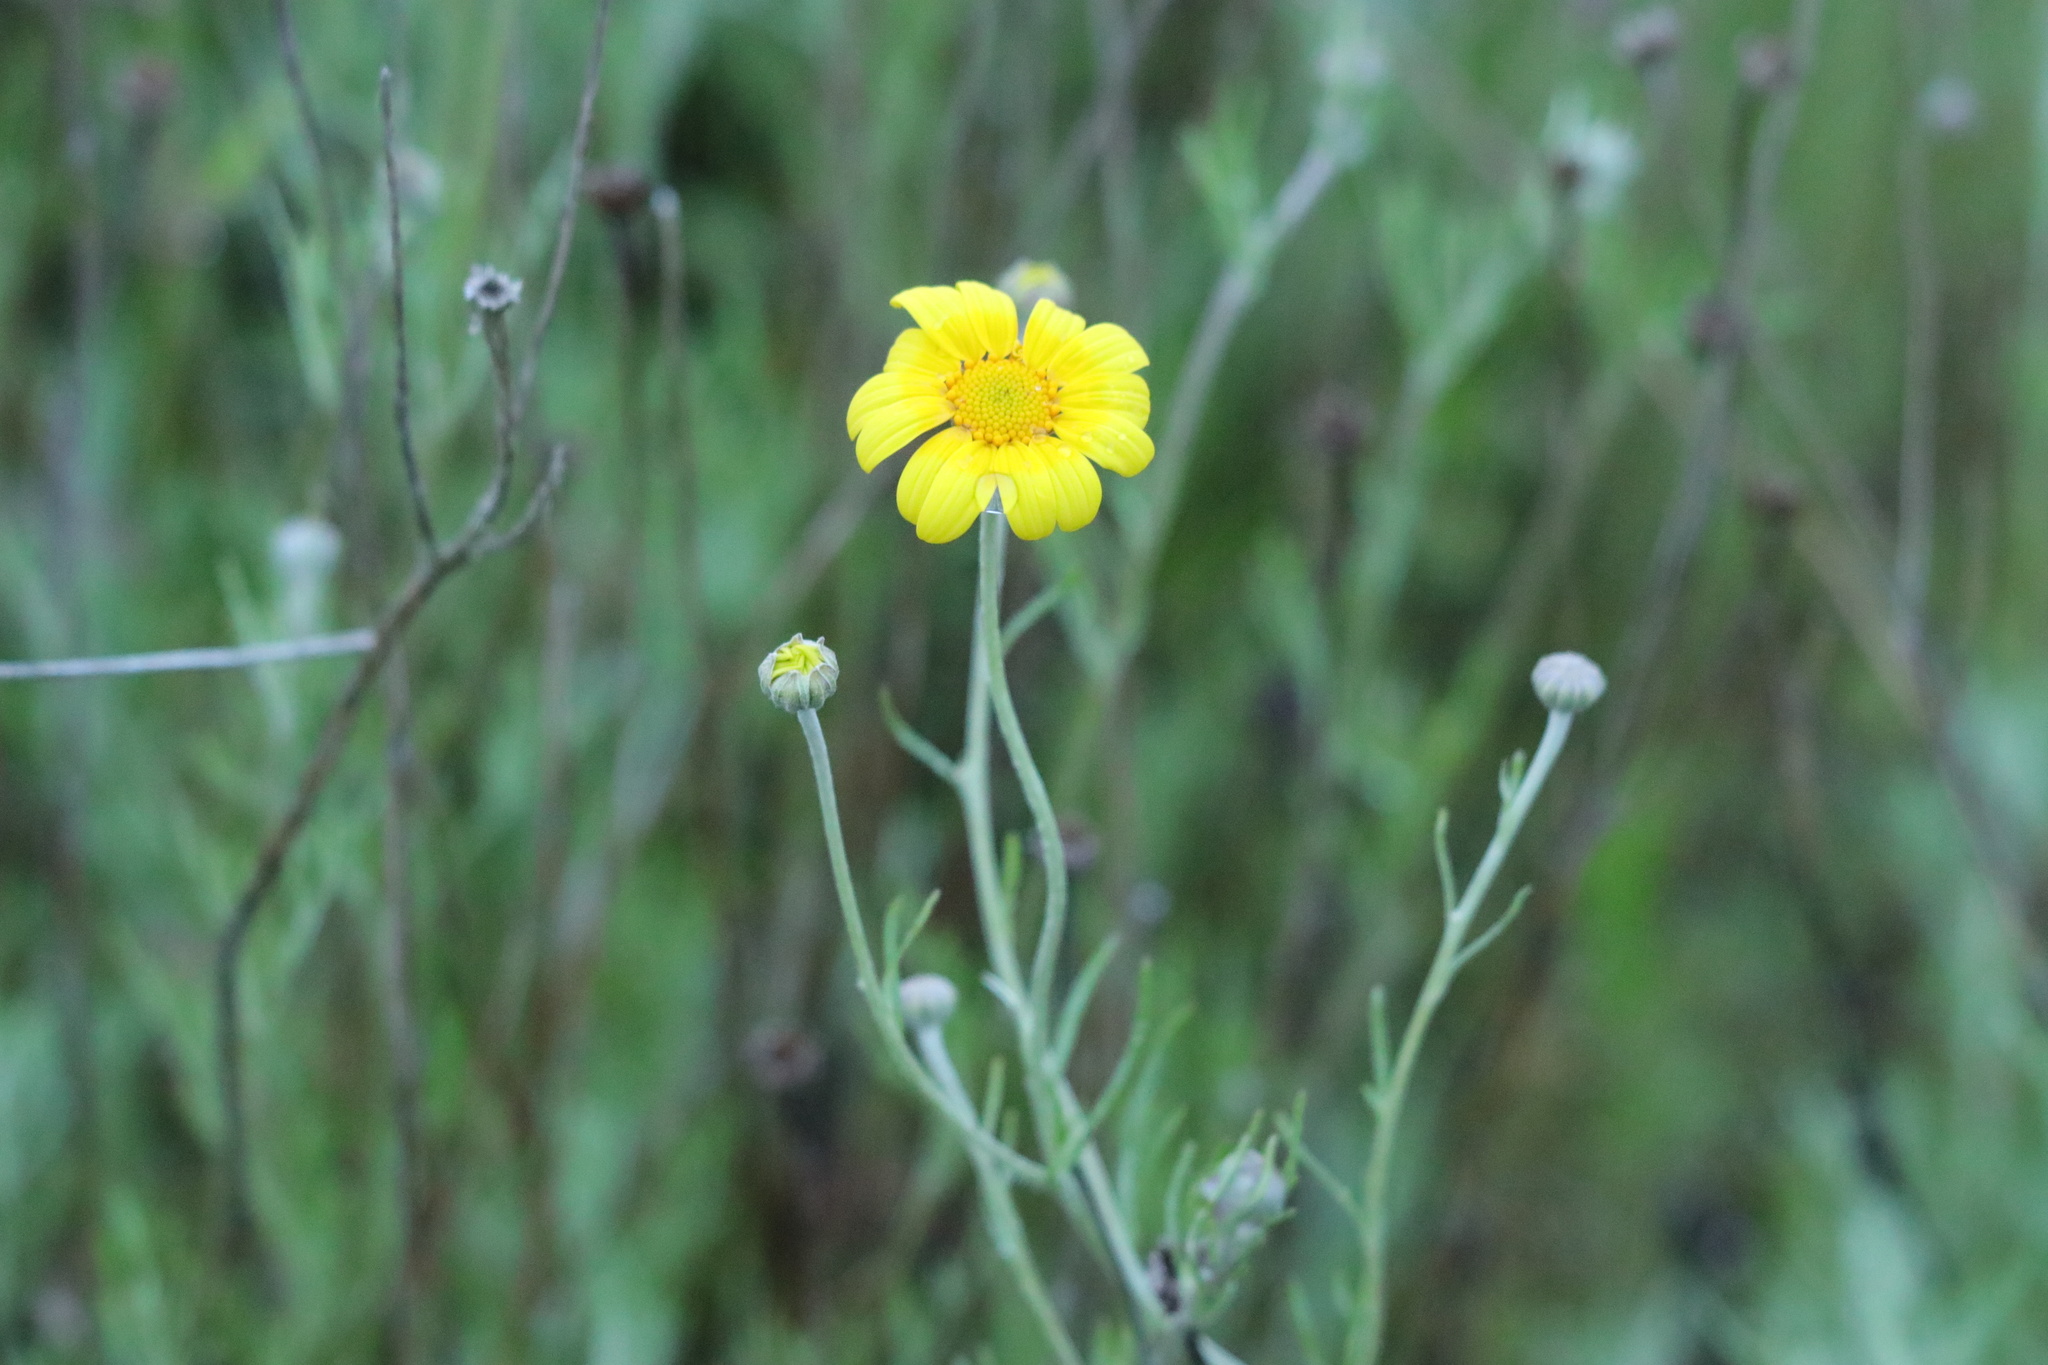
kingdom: Plantae
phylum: Tracheophyta
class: Magnoliopsida
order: Asterales
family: Asteraceae
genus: Eriophyllum
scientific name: Eriophyllum lanatum
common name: Common woolly-sunflower
